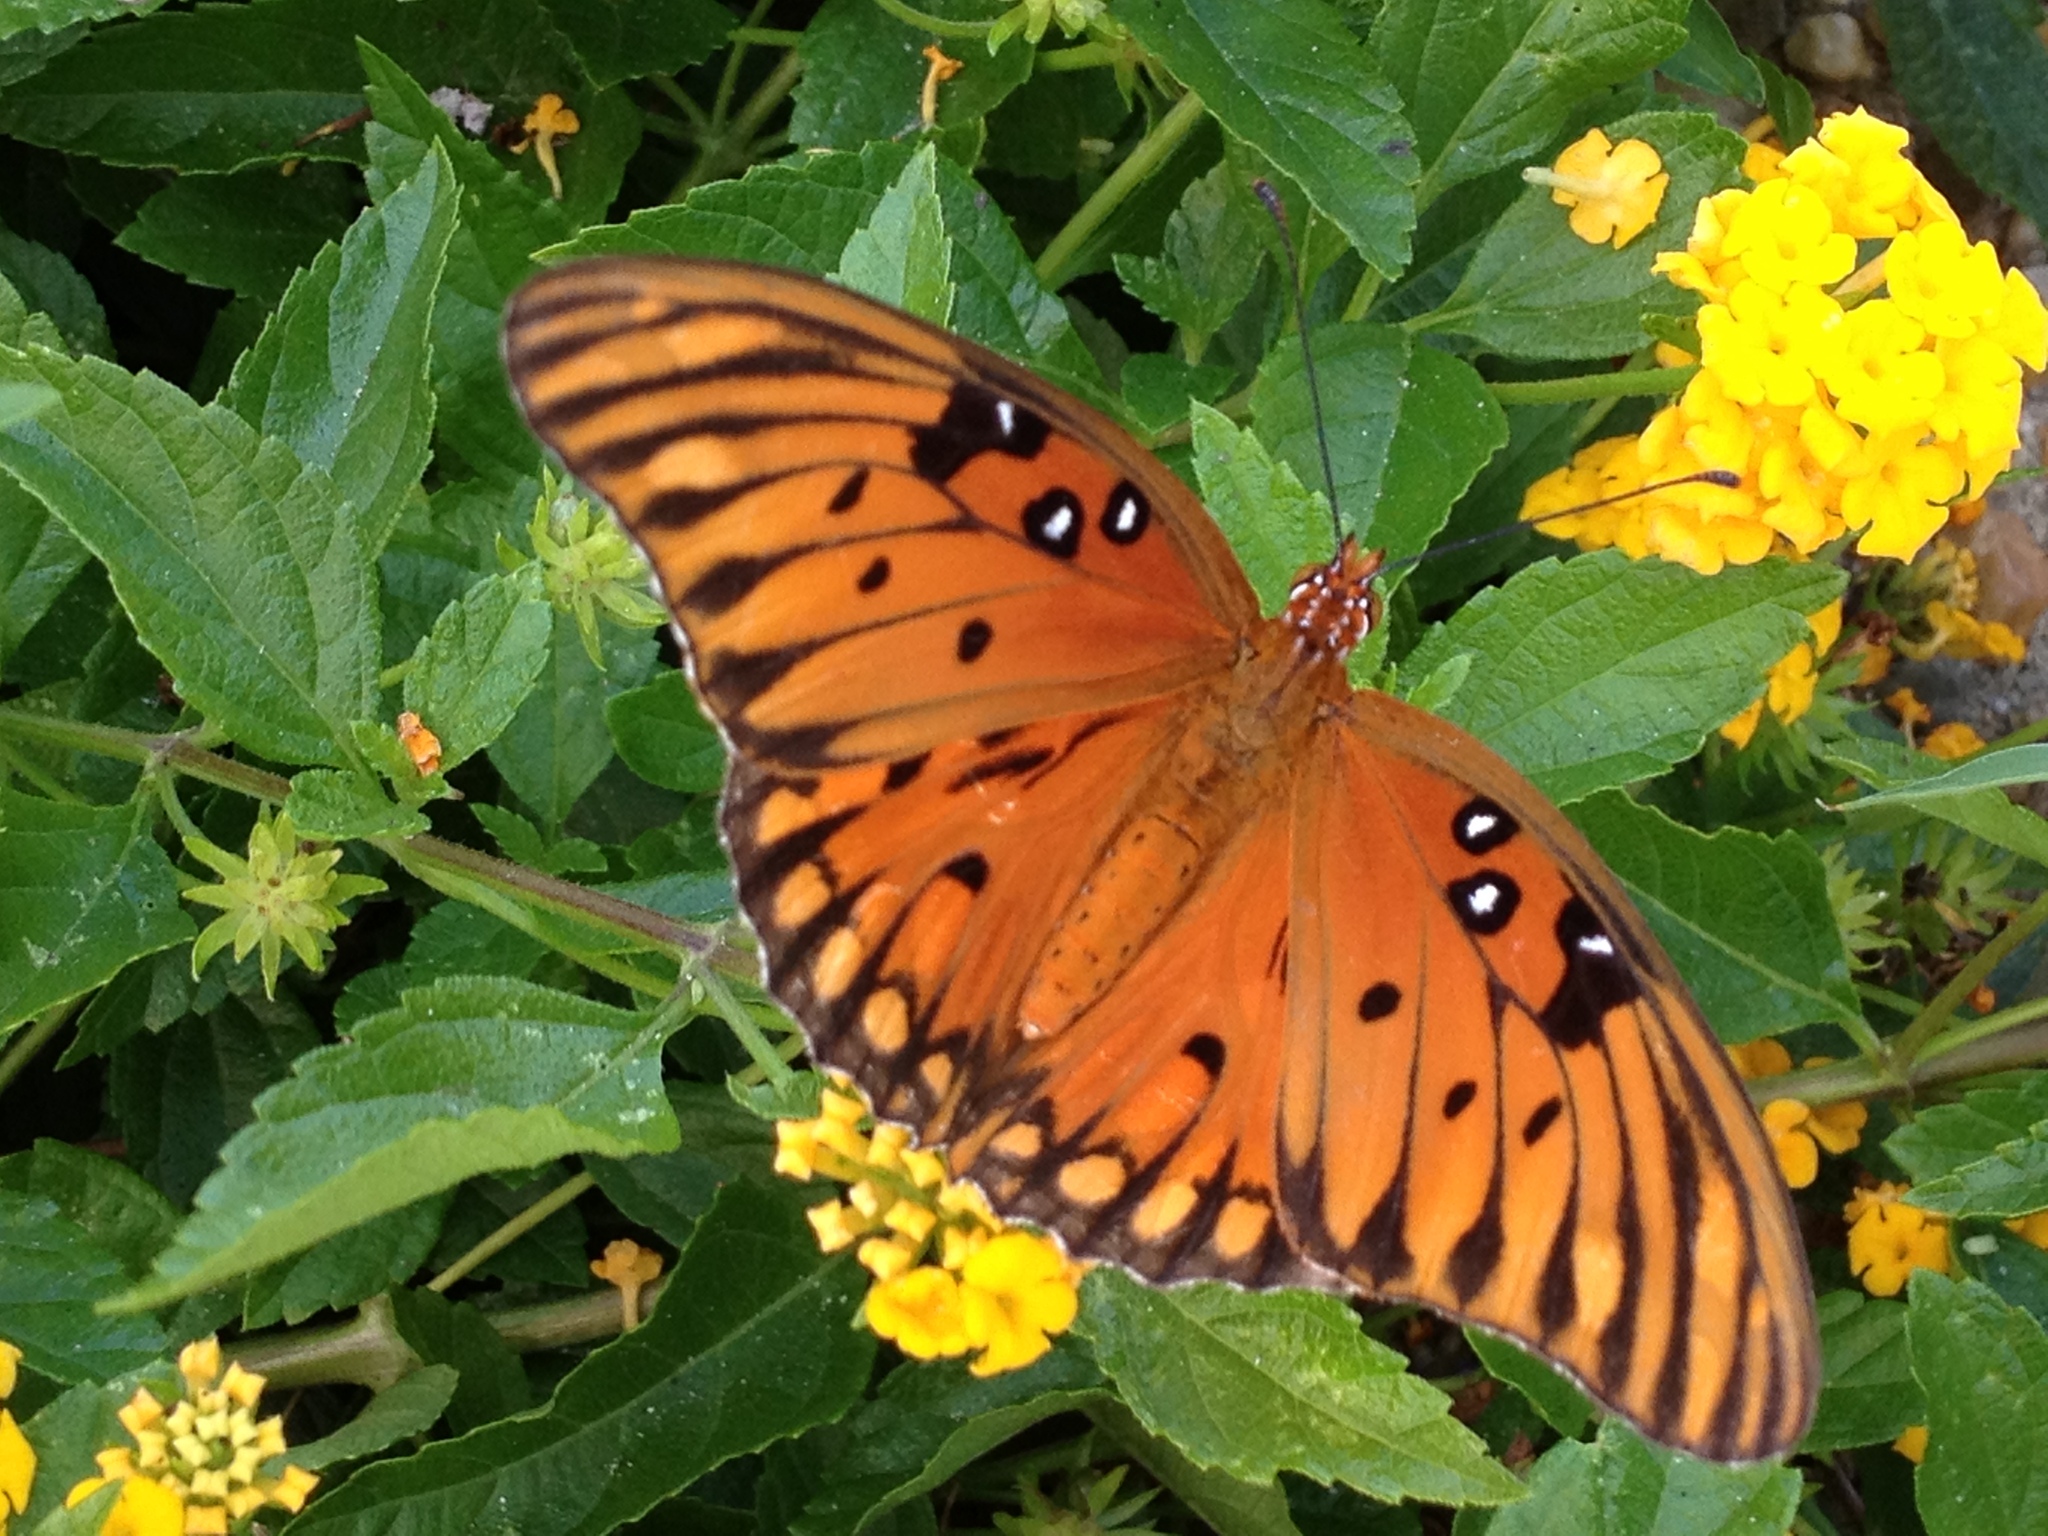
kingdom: Animalia
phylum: Arthropoda
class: Insecta
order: Lepidoptera
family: Nymphalidae
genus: Dione
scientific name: Dione vanillae
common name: Gulf fritillary
